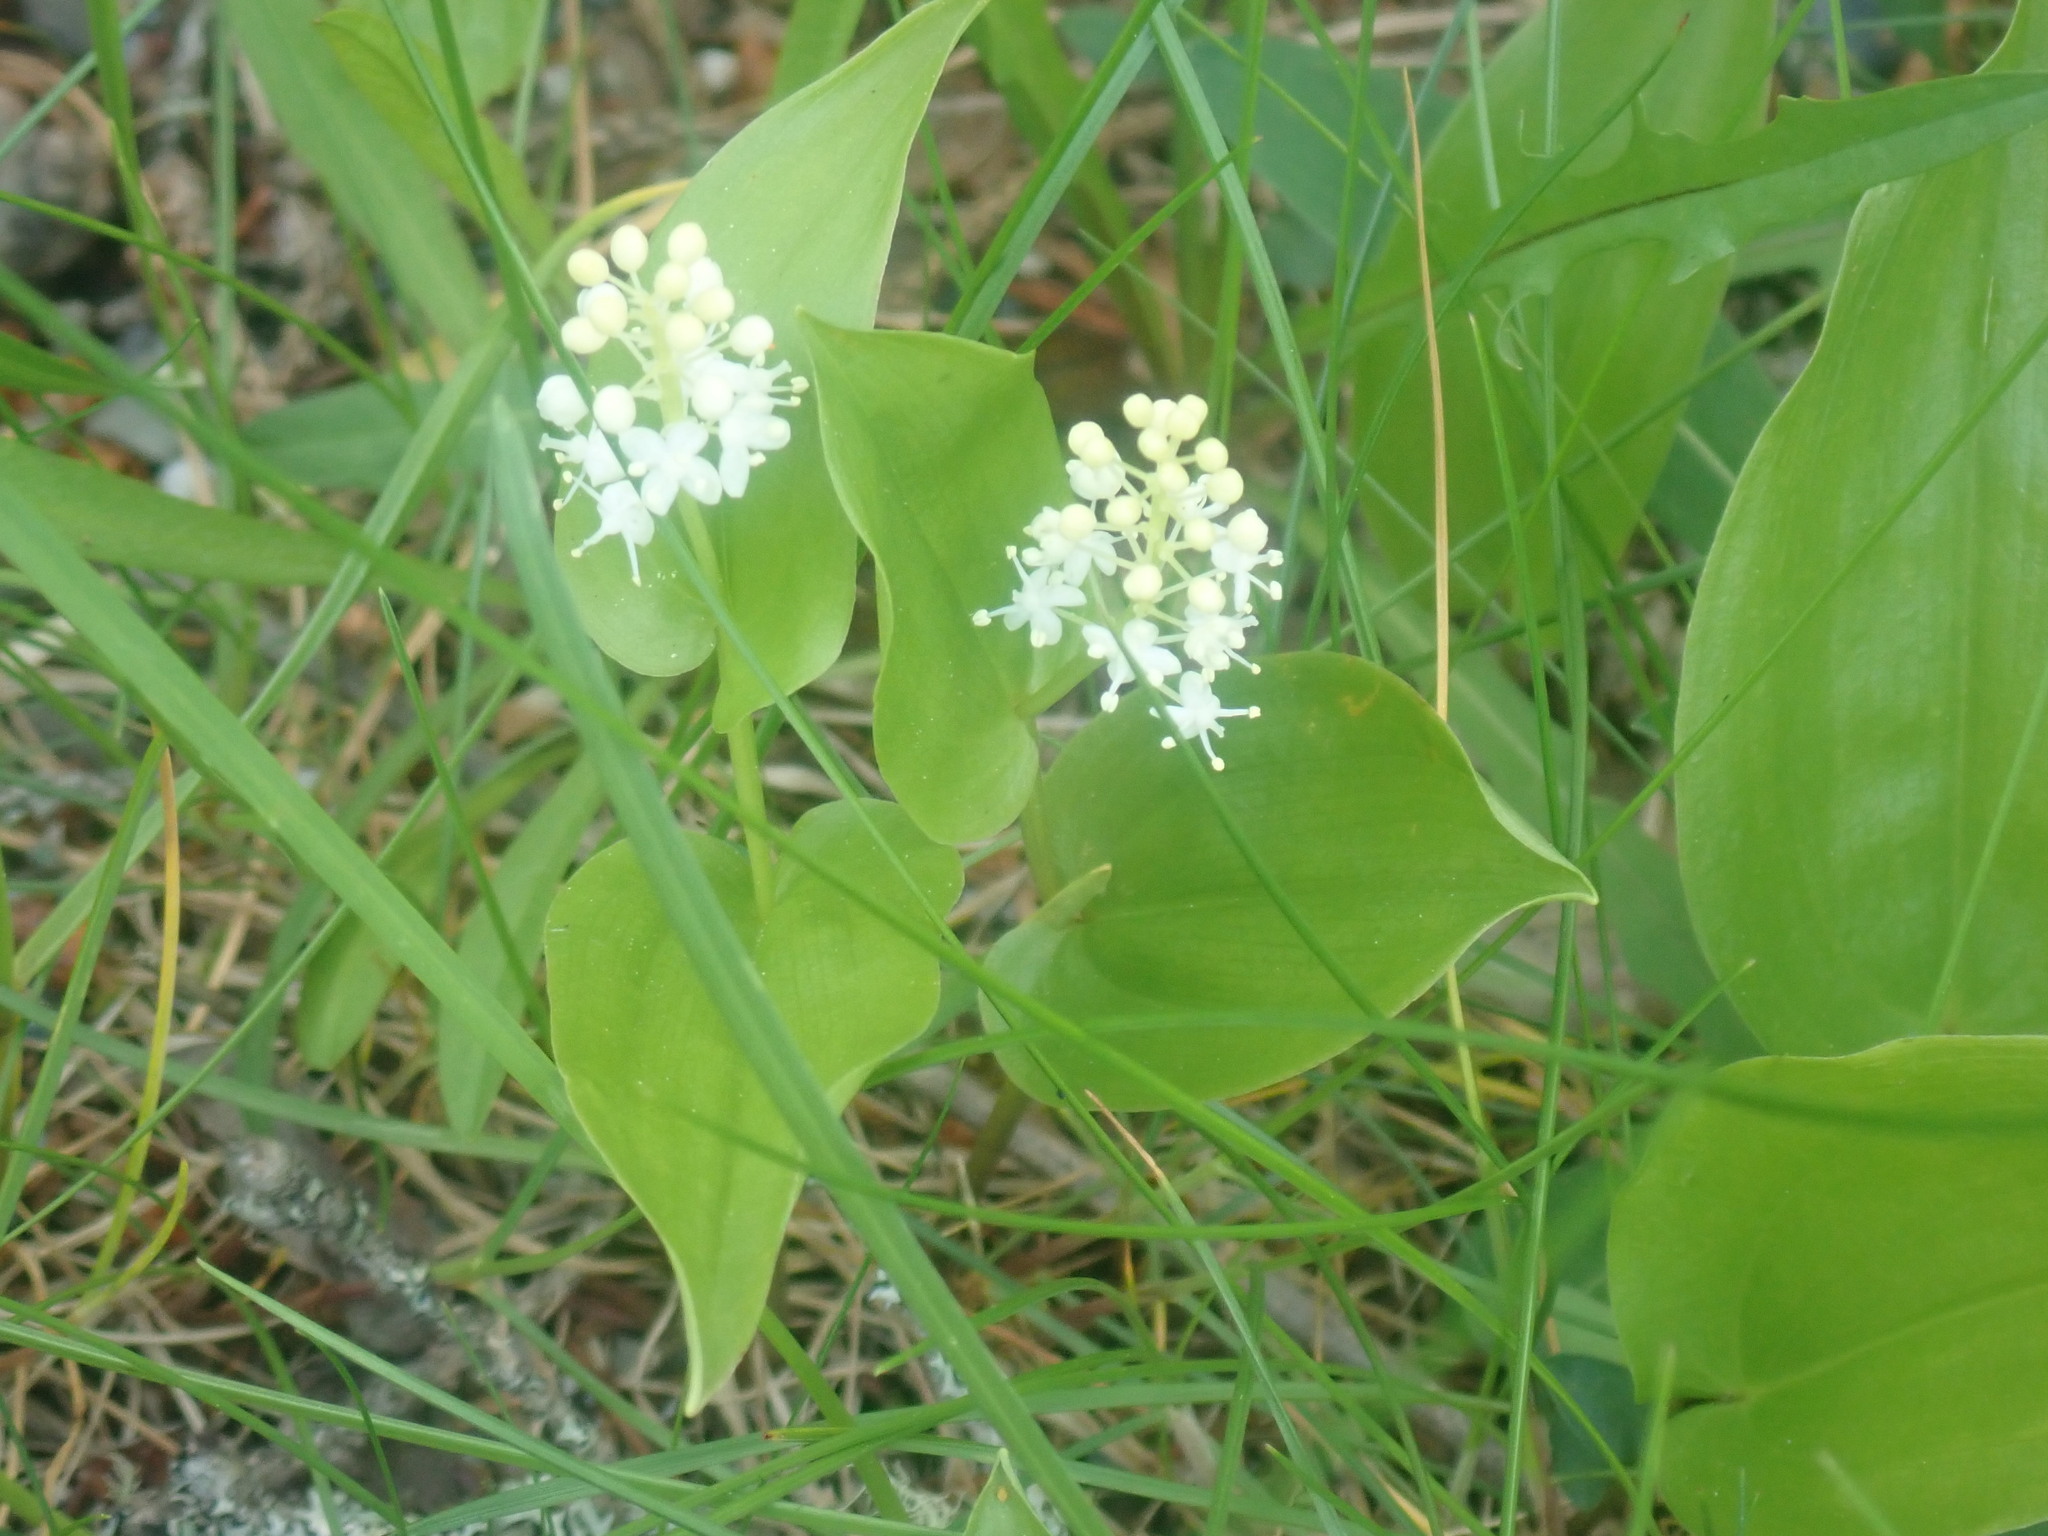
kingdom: Plantae
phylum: Tracheophyta
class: Liliopsida
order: Asparagales
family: Asparagaceae
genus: Maianthemum
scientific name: Maianthemum canadense
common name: False lily-of-the-valley
